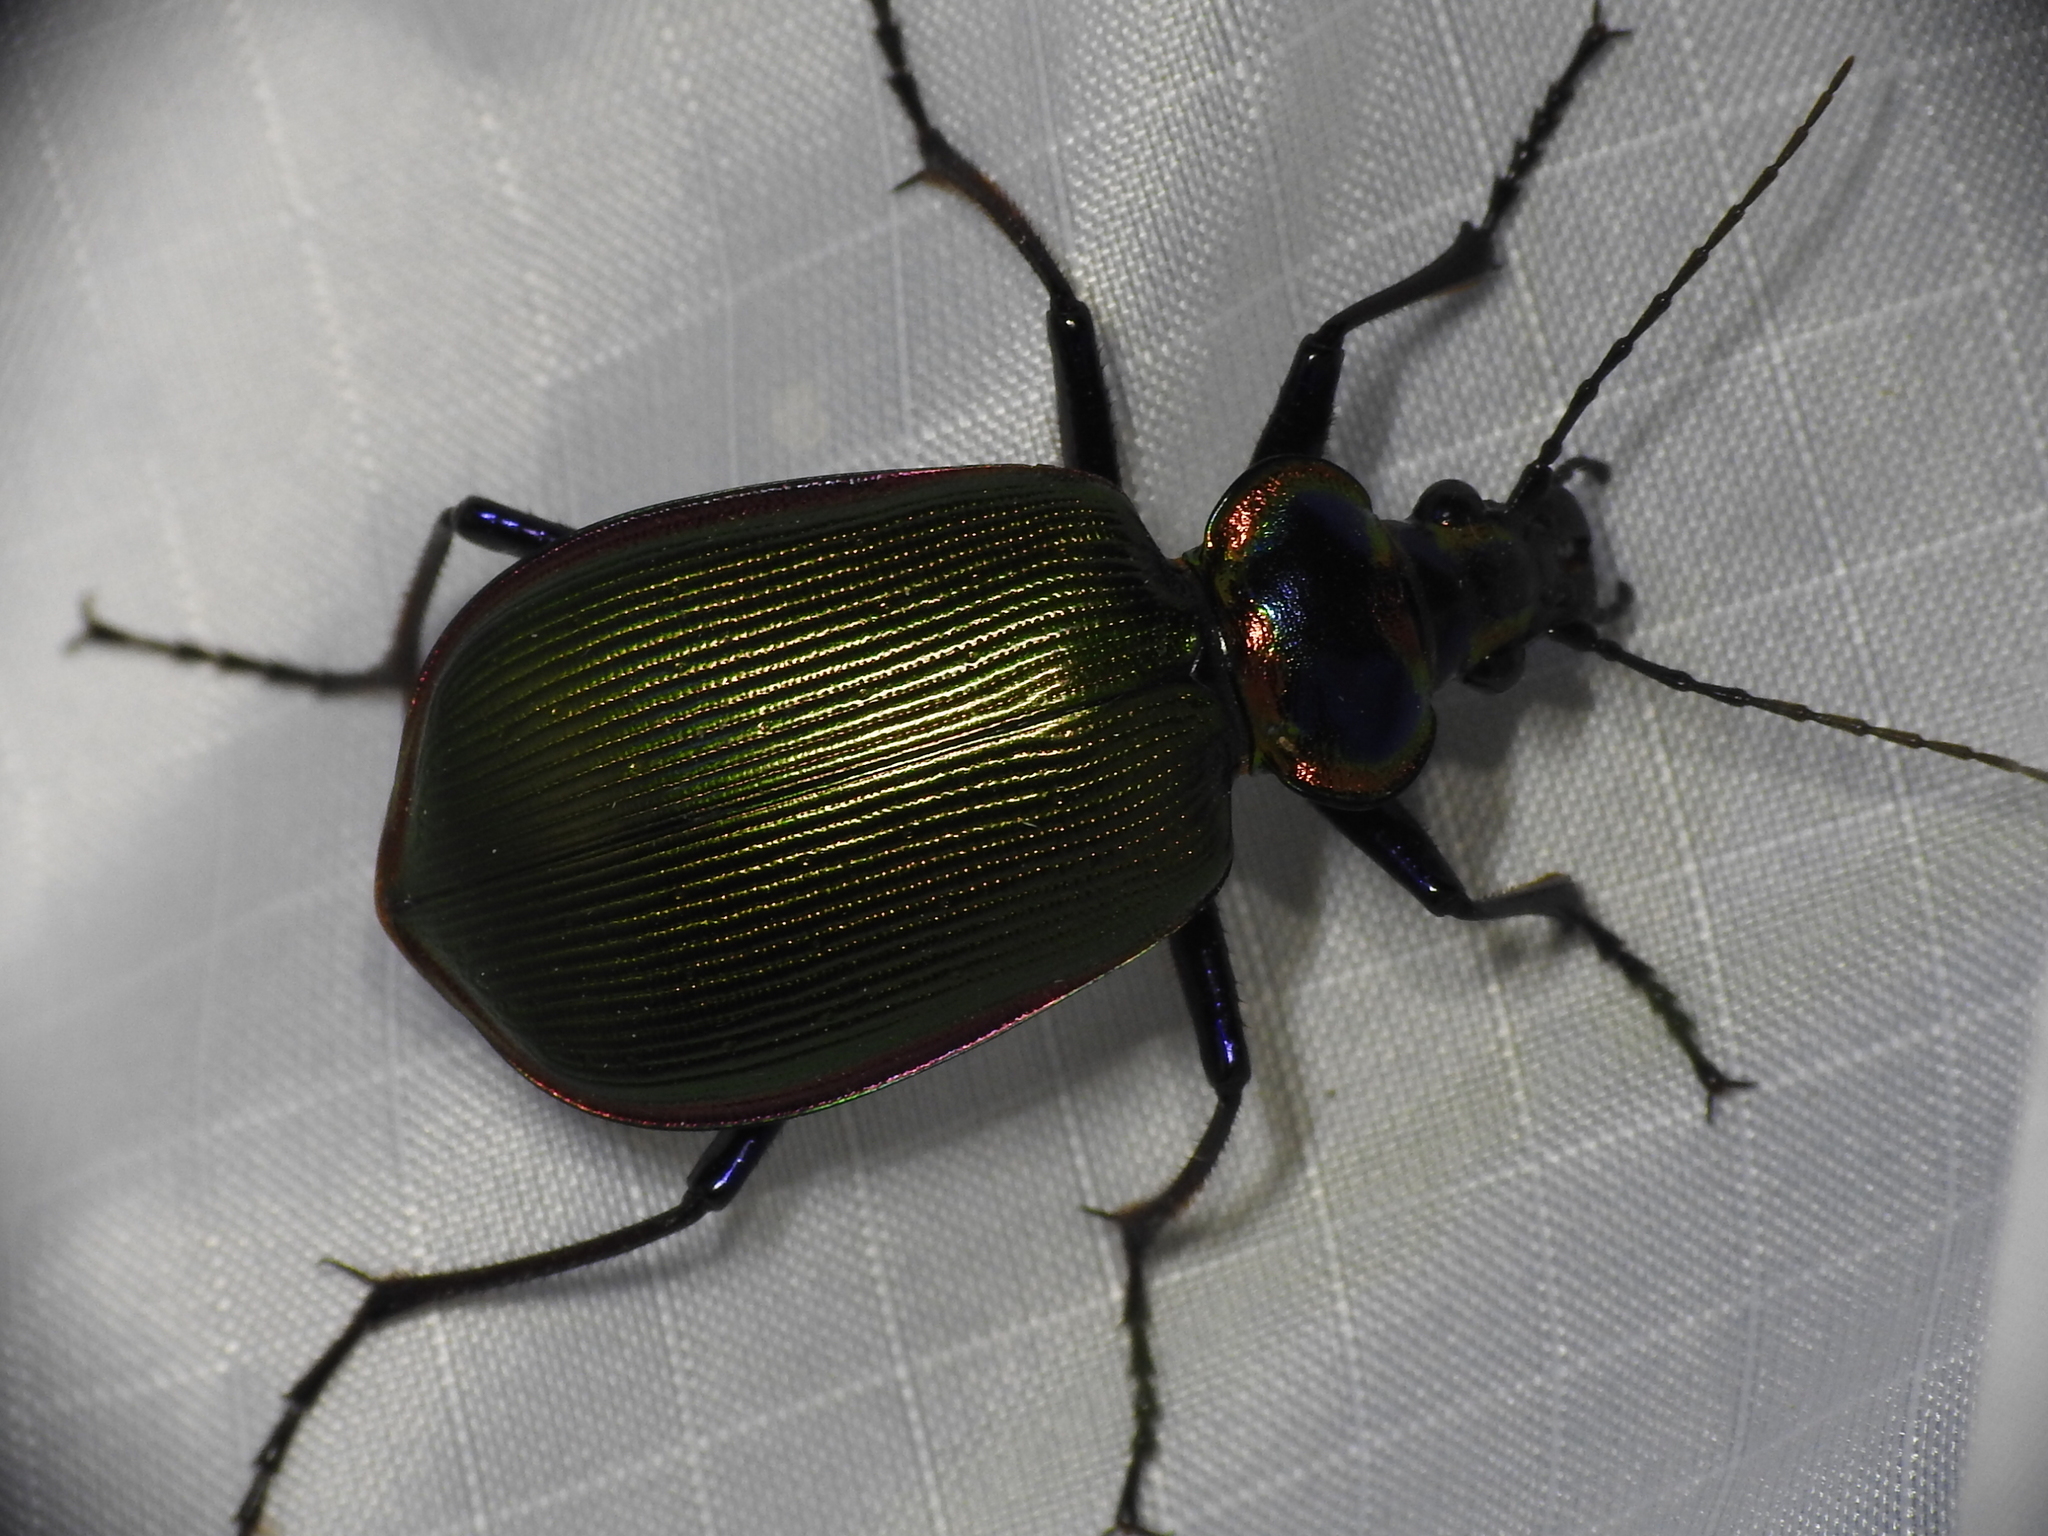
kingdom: Animalia
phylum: Arthropoda
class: Insecta
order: Coleoptera
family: Carabidae
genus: Calosoma
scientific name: Calosoma scrutator
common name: Fiery searcher beetle
